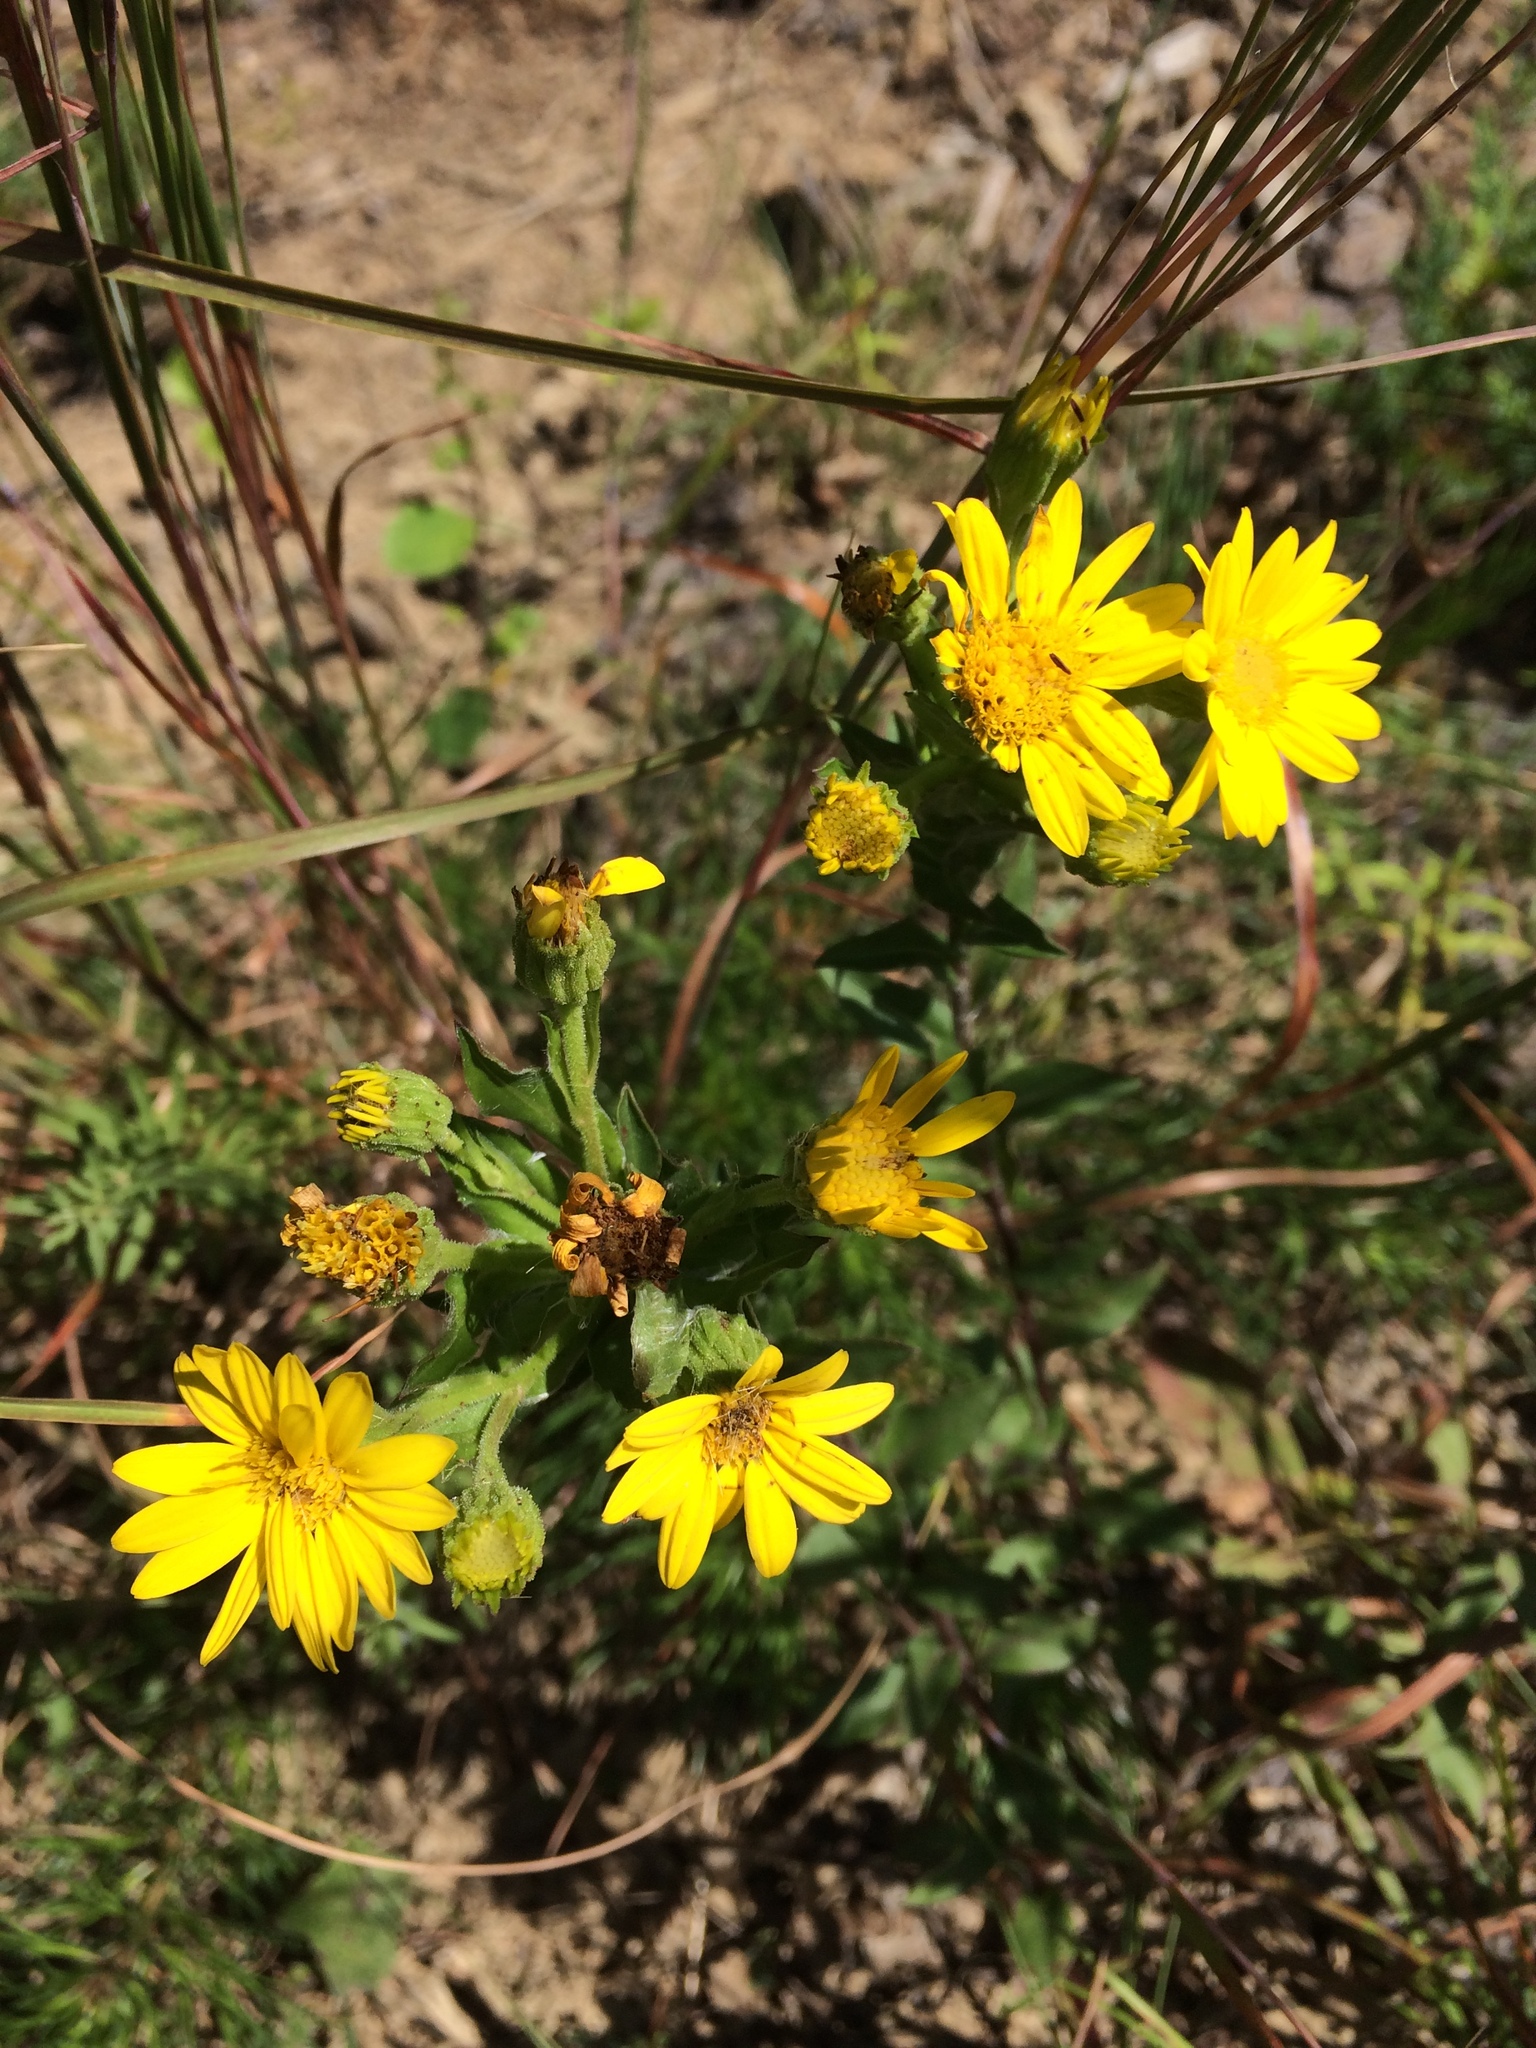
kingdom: Plantae
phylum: Tracheophyta
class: Magnoliopsida
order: Asterales
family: Asteraceae
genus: Chrysopsis
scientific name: Chrysopsis mariana
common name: Maryland golden-aster
